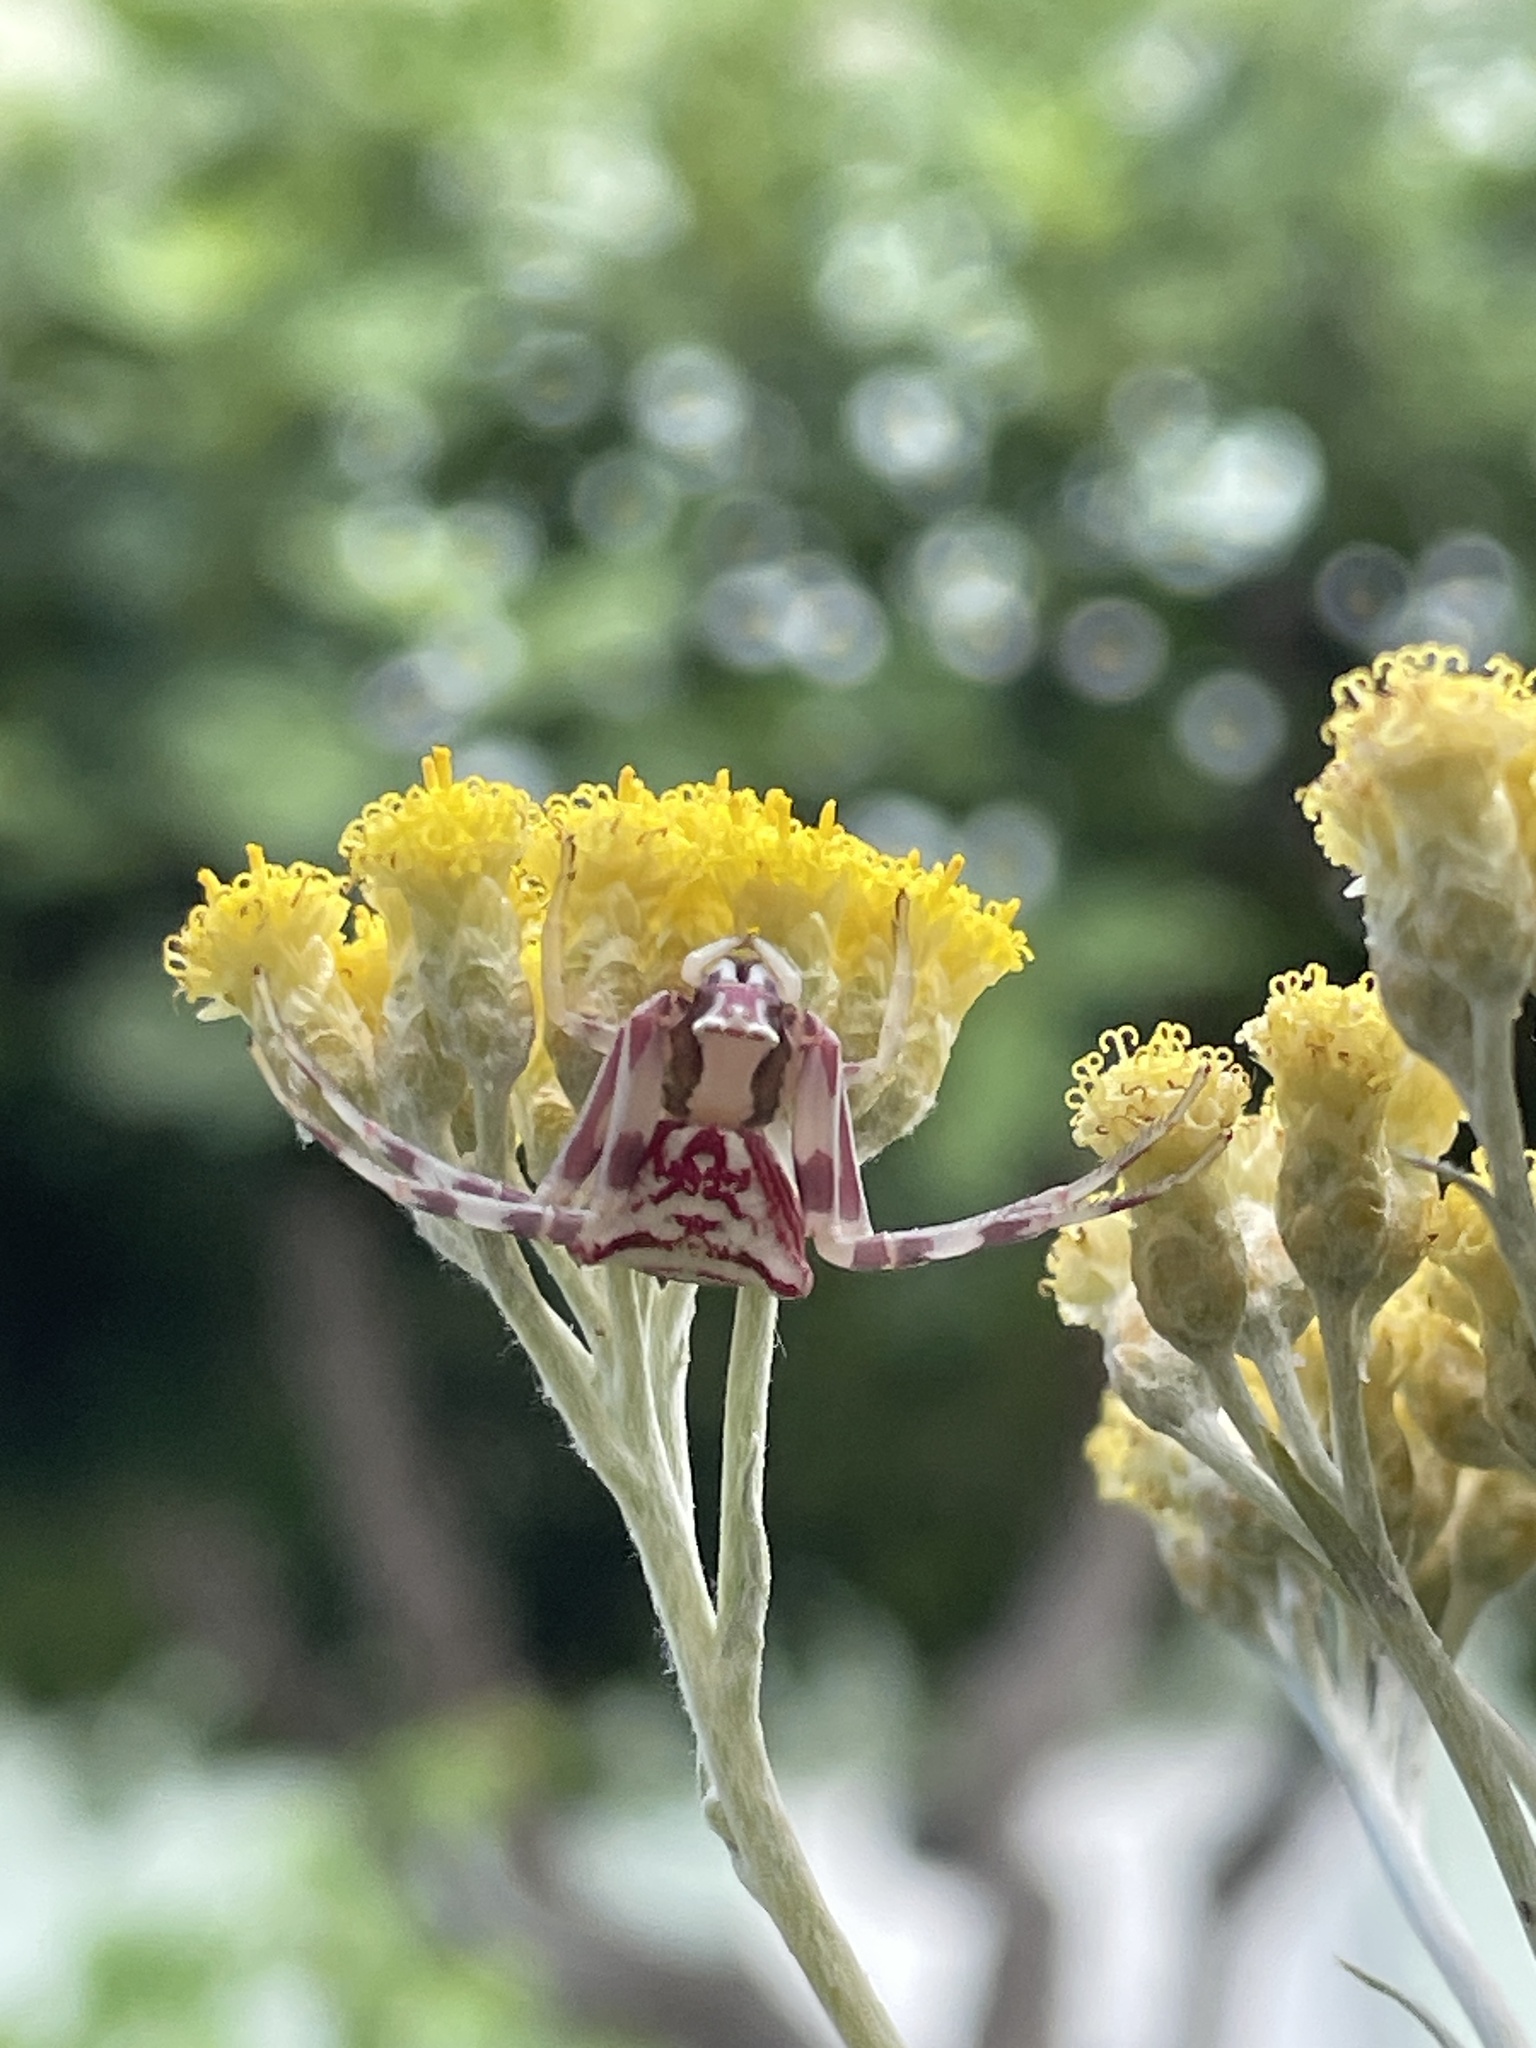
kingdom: Animalia
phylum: Arthropoda
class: Arachnida
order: Araneae
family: Thomisidae
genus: Thomisus
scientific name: Thomisus onustus
